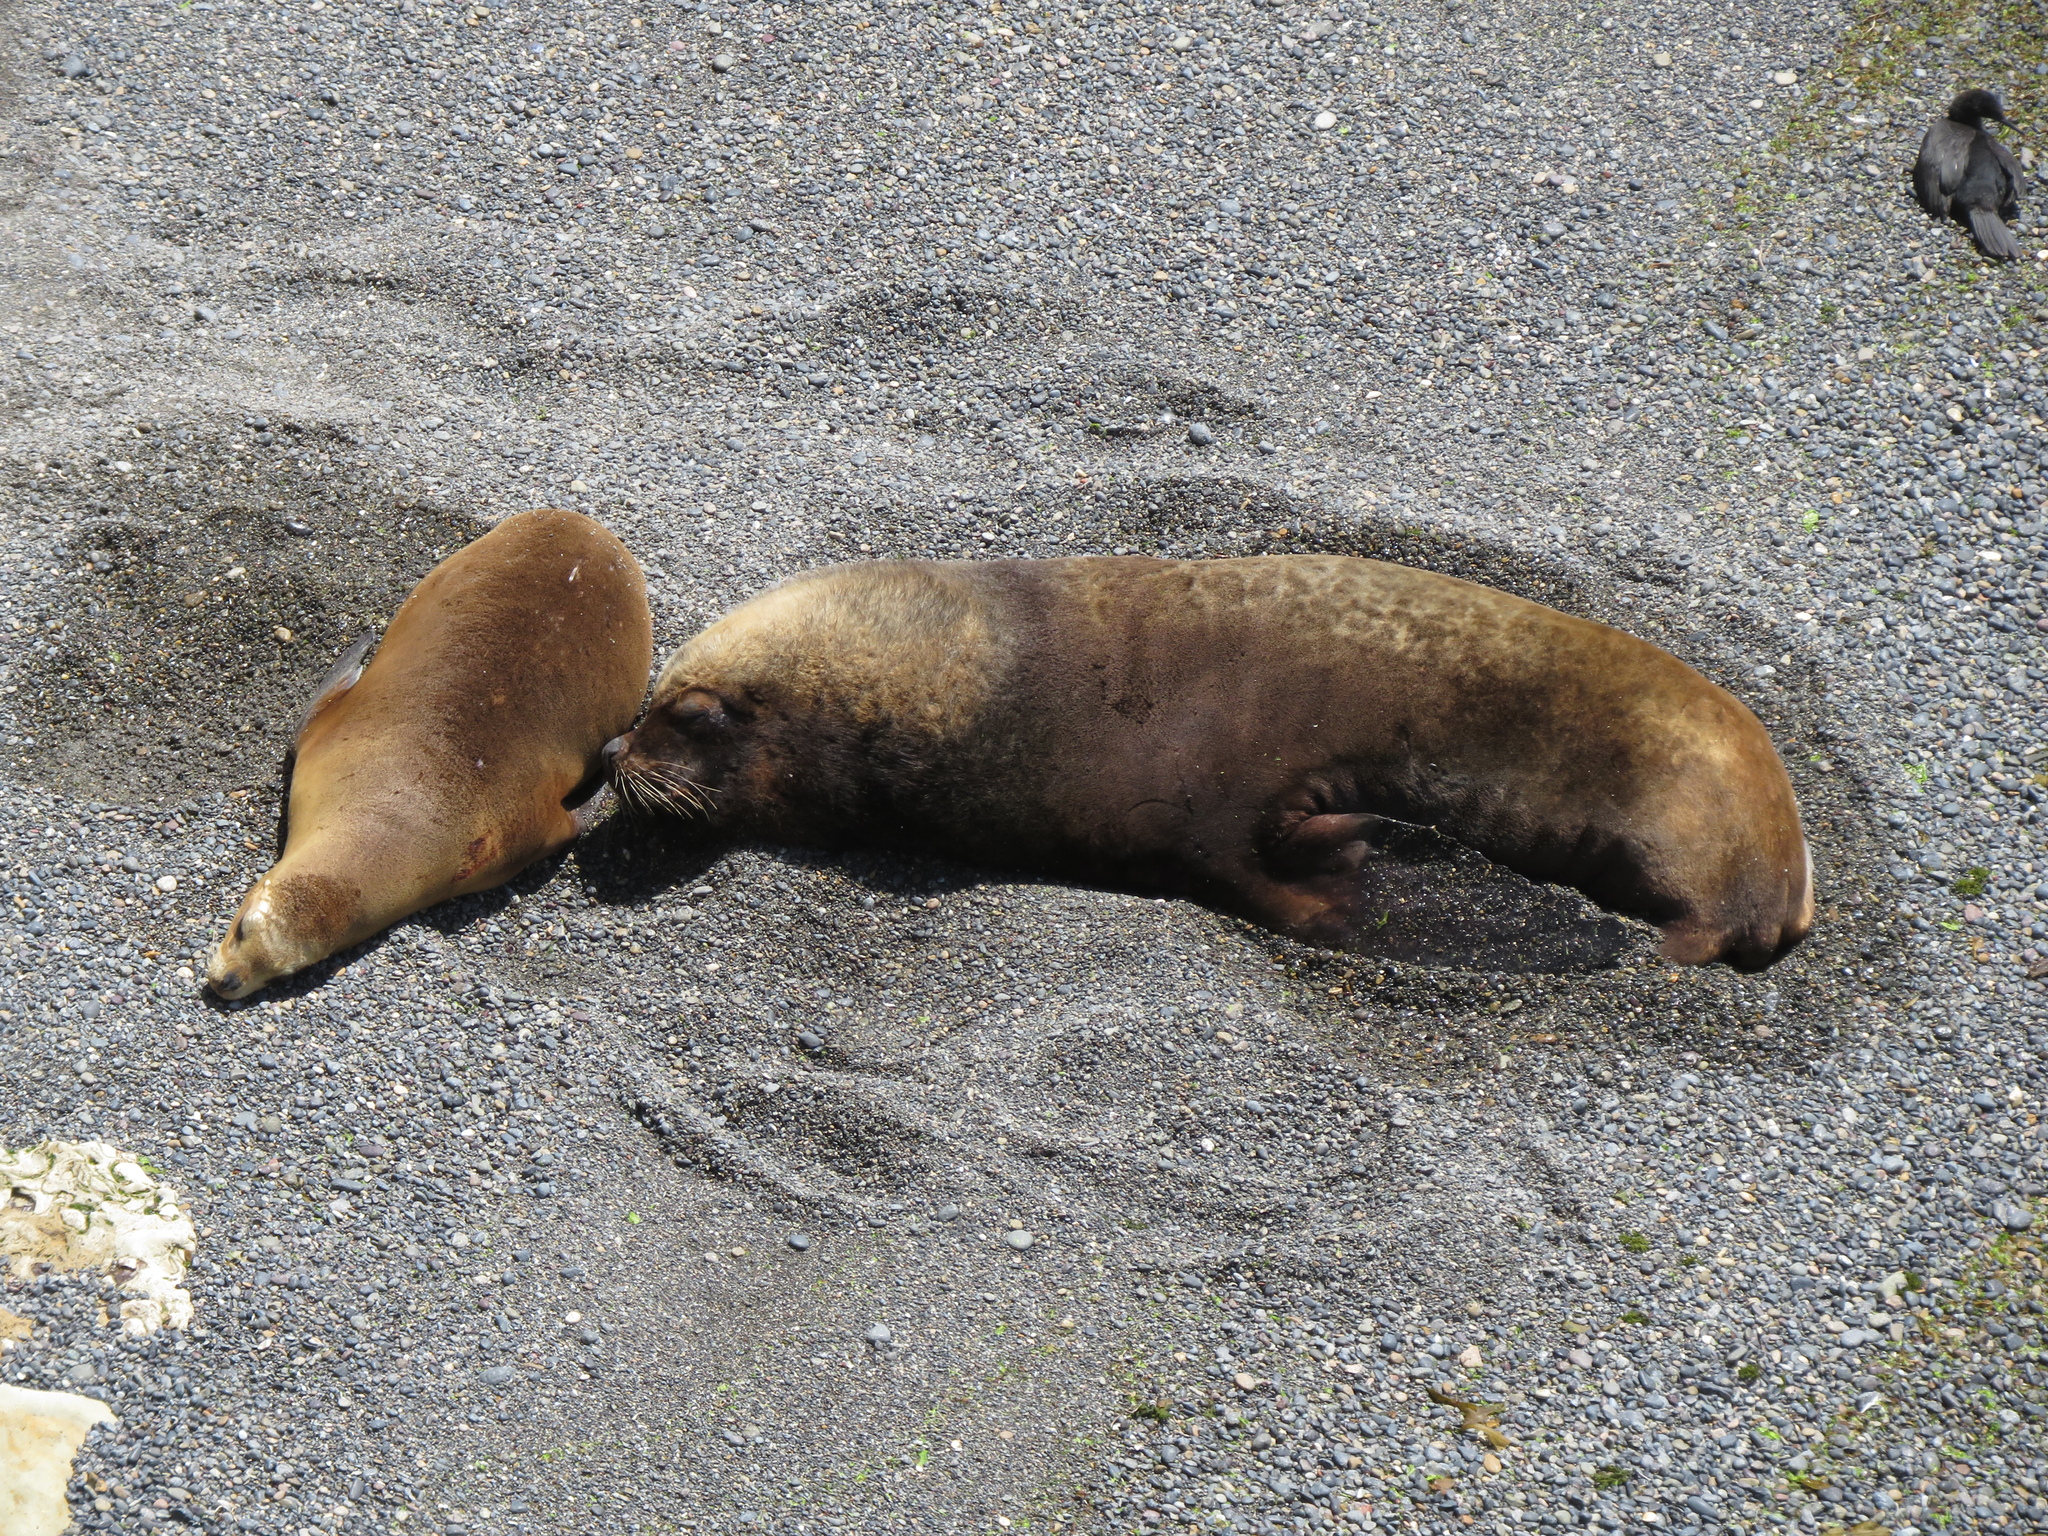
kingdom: Animalia
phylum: Chordata
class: Mammalia
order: Carnivora
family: Otariidae
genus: Otaria
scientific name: Otaria byronia
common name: South american sea lion
